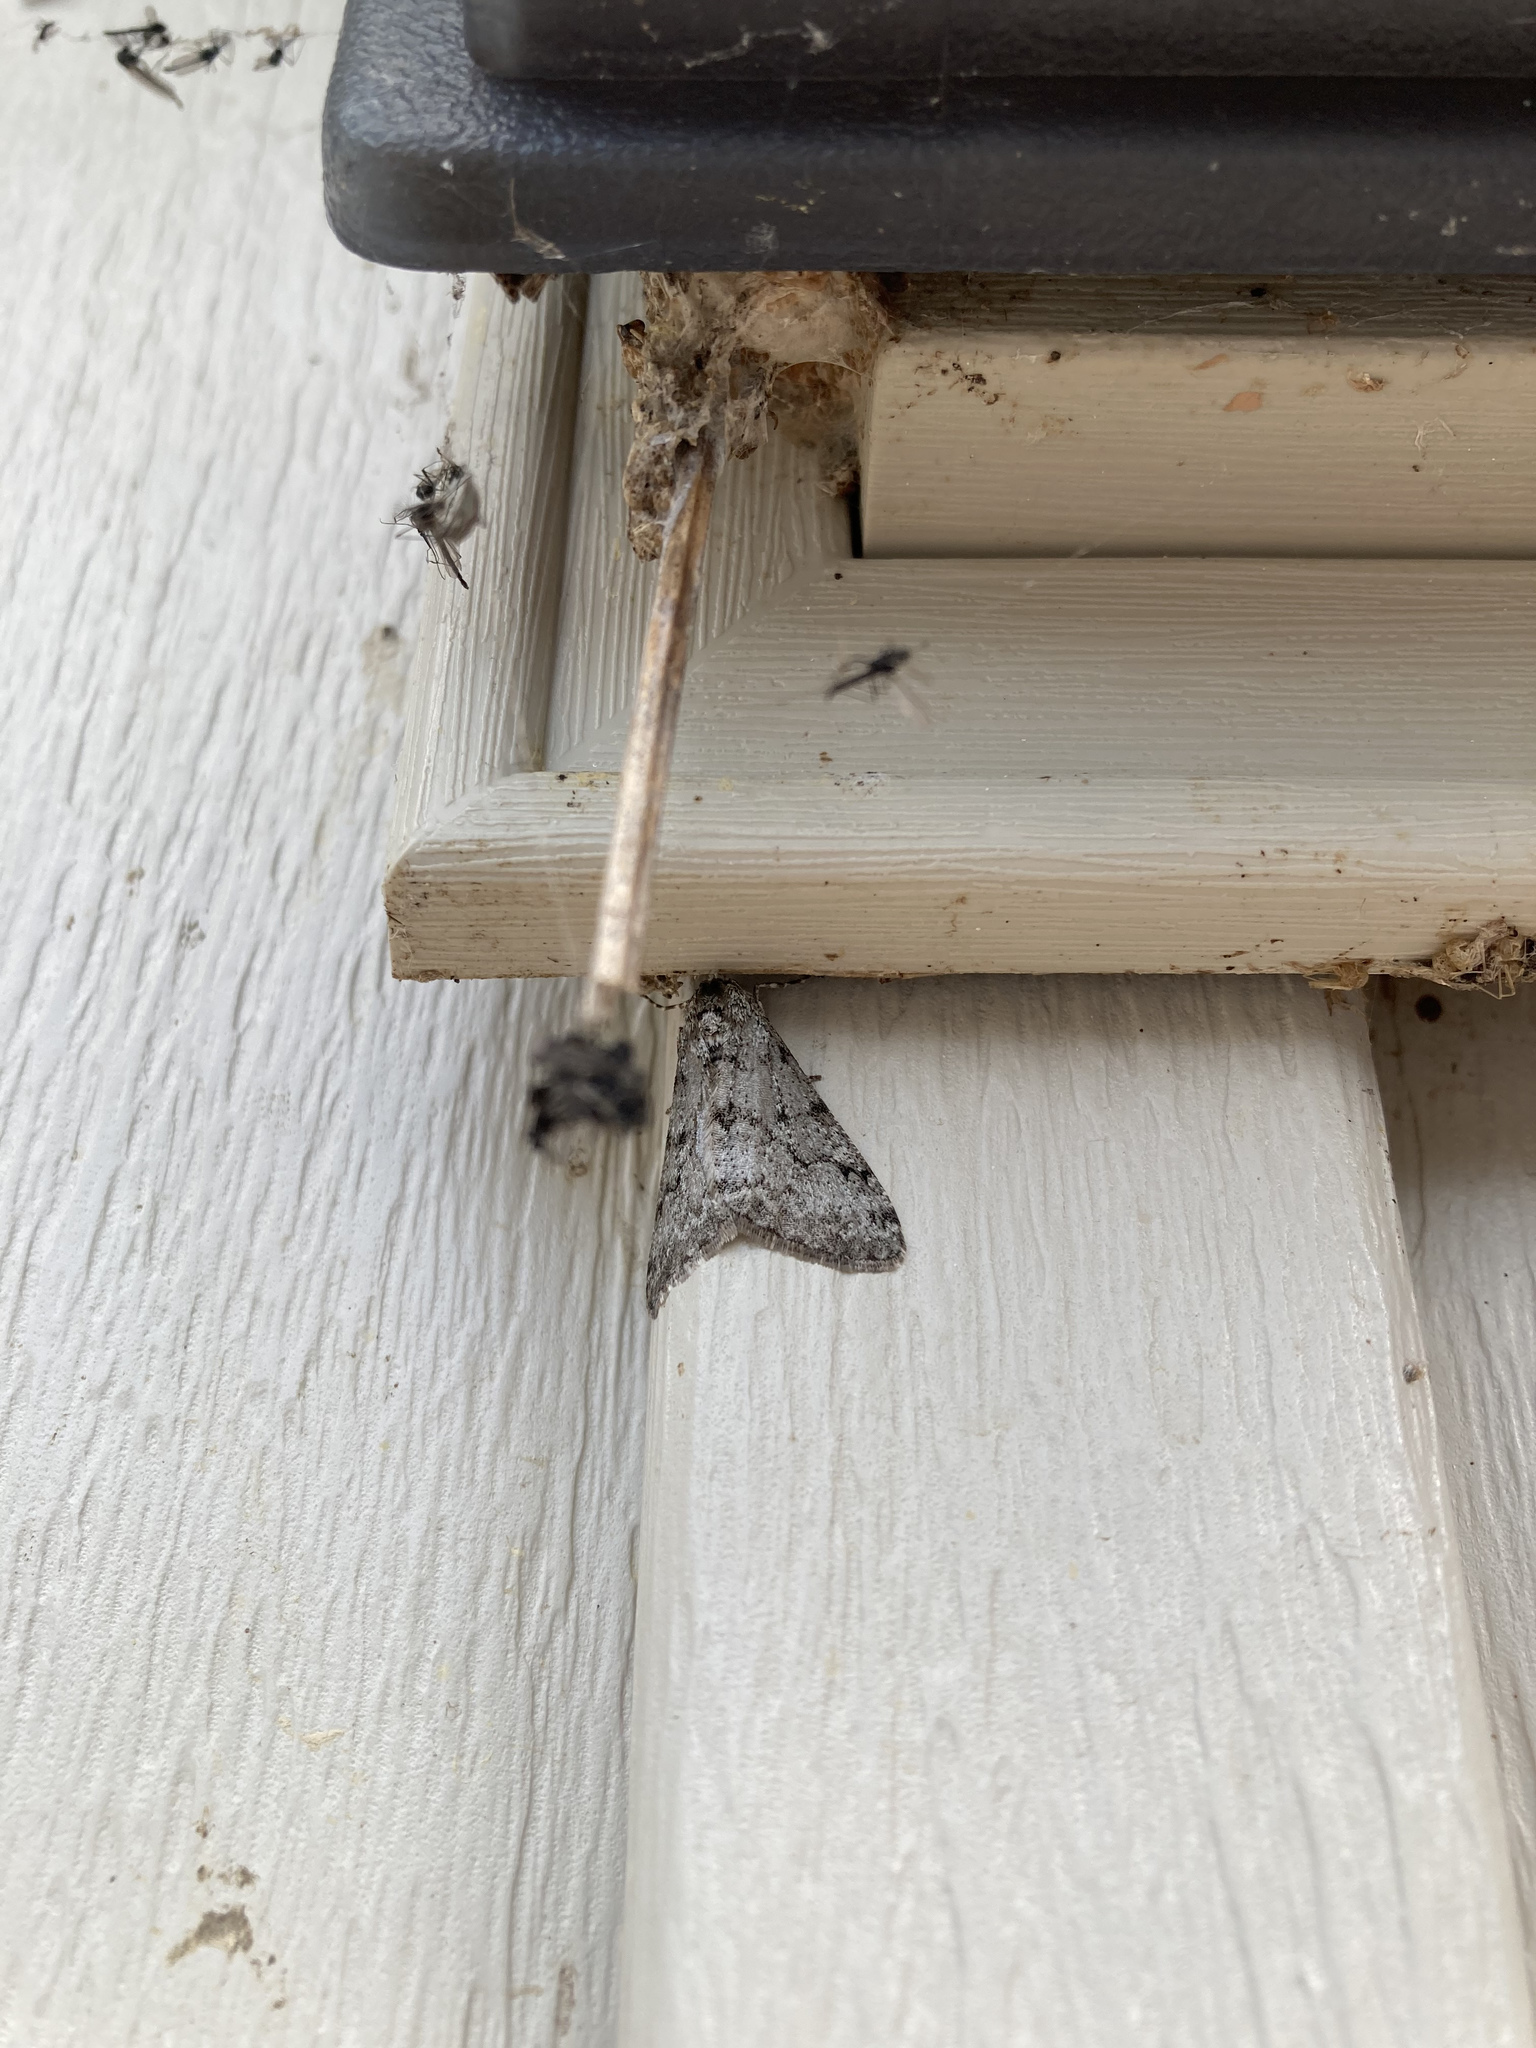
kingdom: Animalia
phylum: Arthropoda
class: Insecta
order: Lepidoptera
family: Geometridae
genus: Phigalia
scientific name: Phigalia strigataria
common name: Small phigalia
